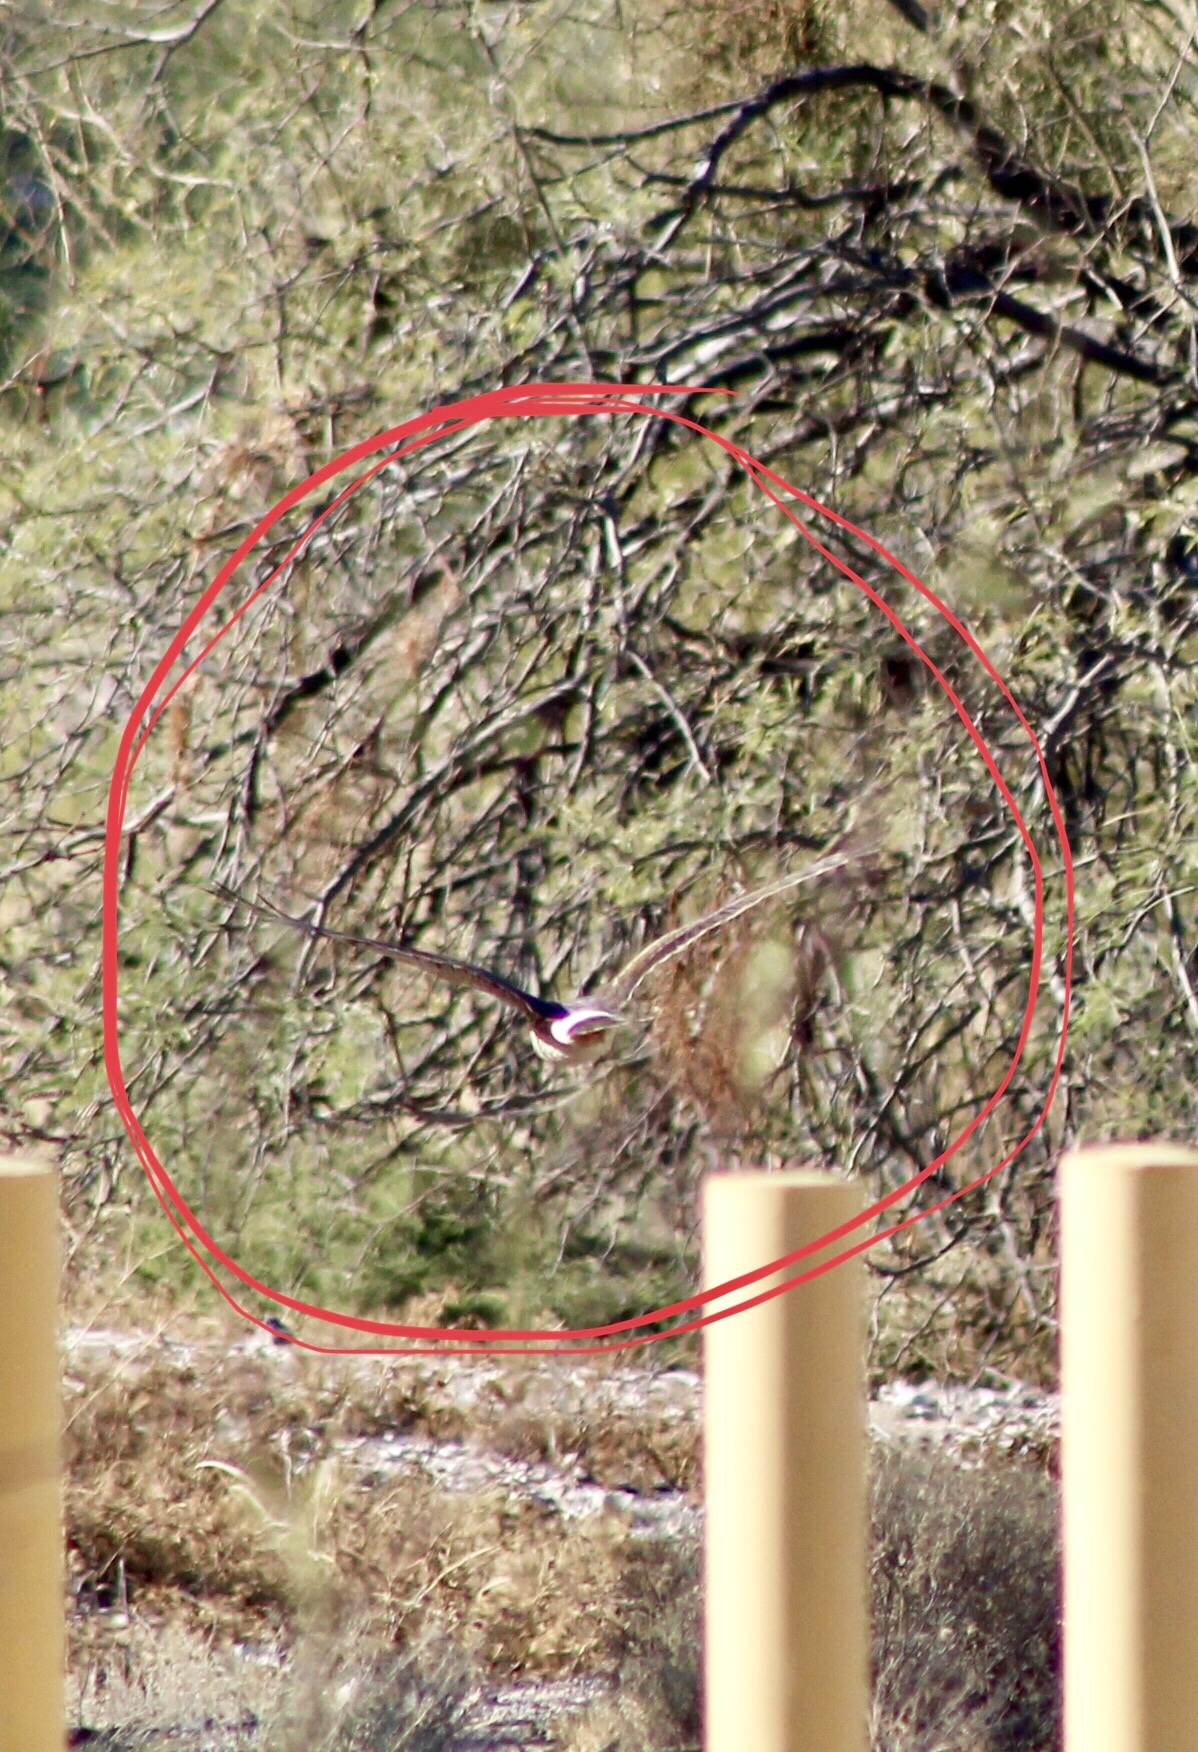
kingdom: Animalia
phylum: Chordata
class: Aves
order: Accipitriformes
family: Accipitridae
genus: Circus
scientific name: Circus cyaneus
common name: Hen harrier
